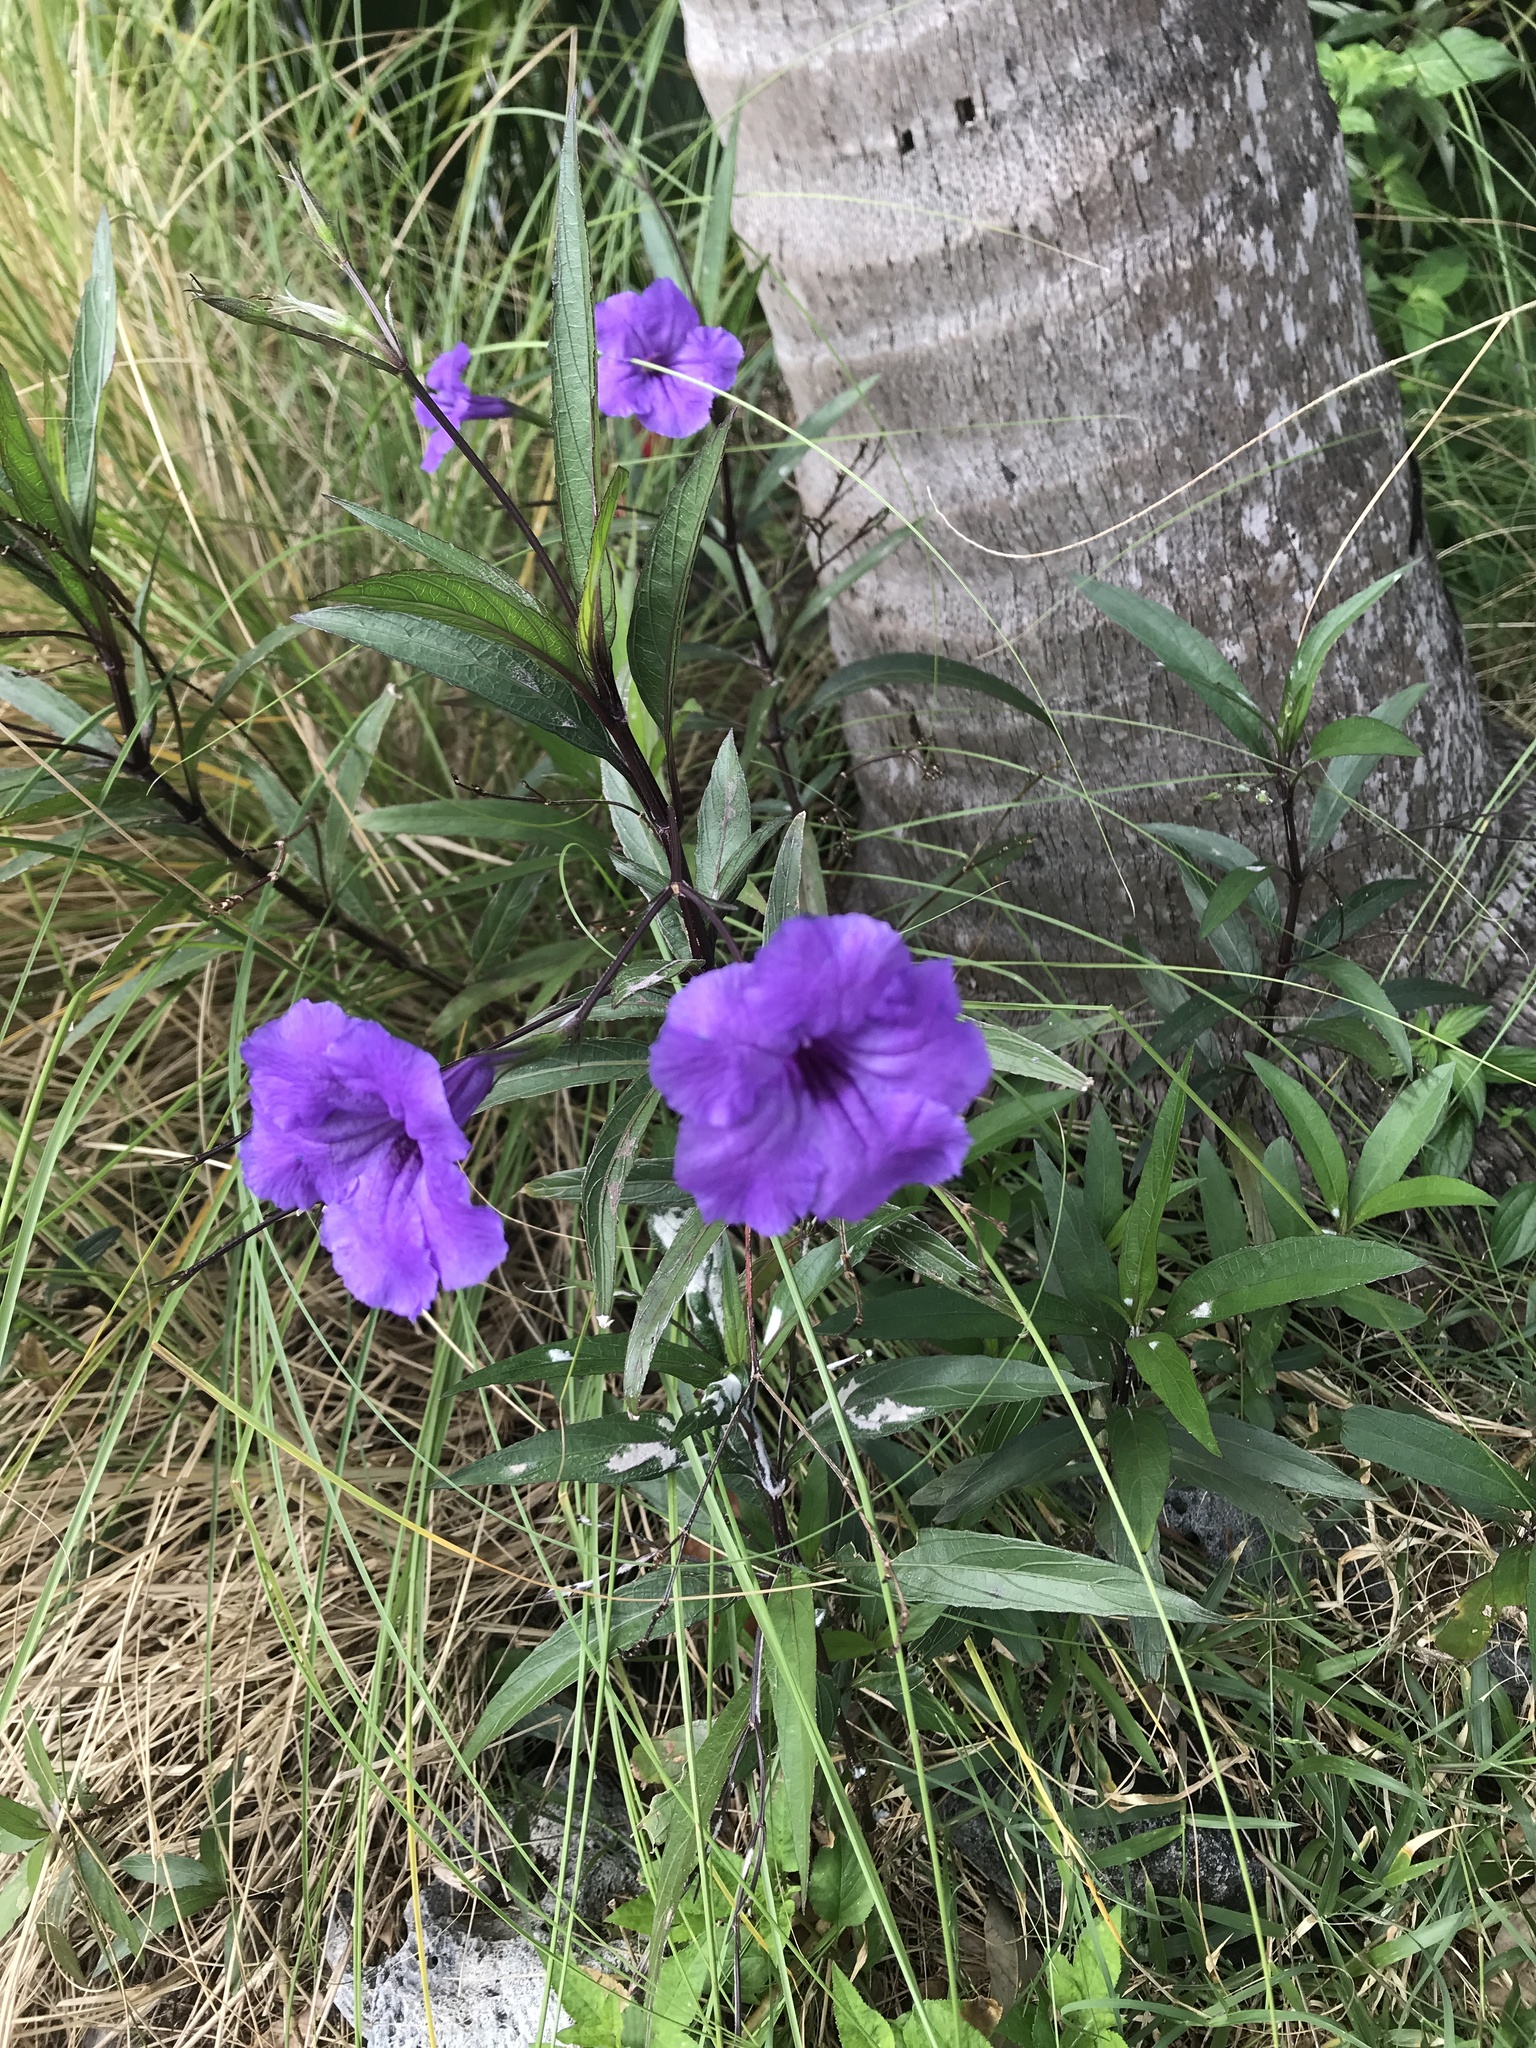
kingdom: Plantae
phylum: Tracheophyta
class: Magnoliopsida
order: Lamiales
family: Acanthaceae
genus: Ruellia
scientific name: Ruellia simplex
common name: Softseed wild petunia
